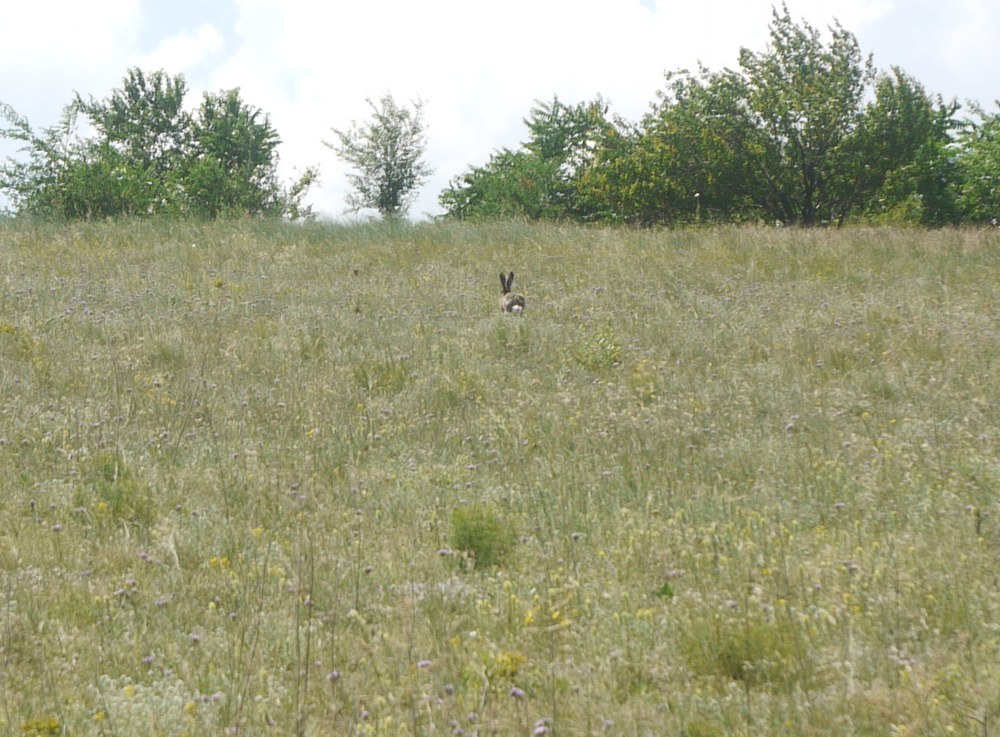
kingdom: Animalia
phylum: Chordata
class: Mammalia
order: Lagomorpha
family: Leporidae
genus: Lepus
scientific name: Lepus europaeus
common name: European hare
